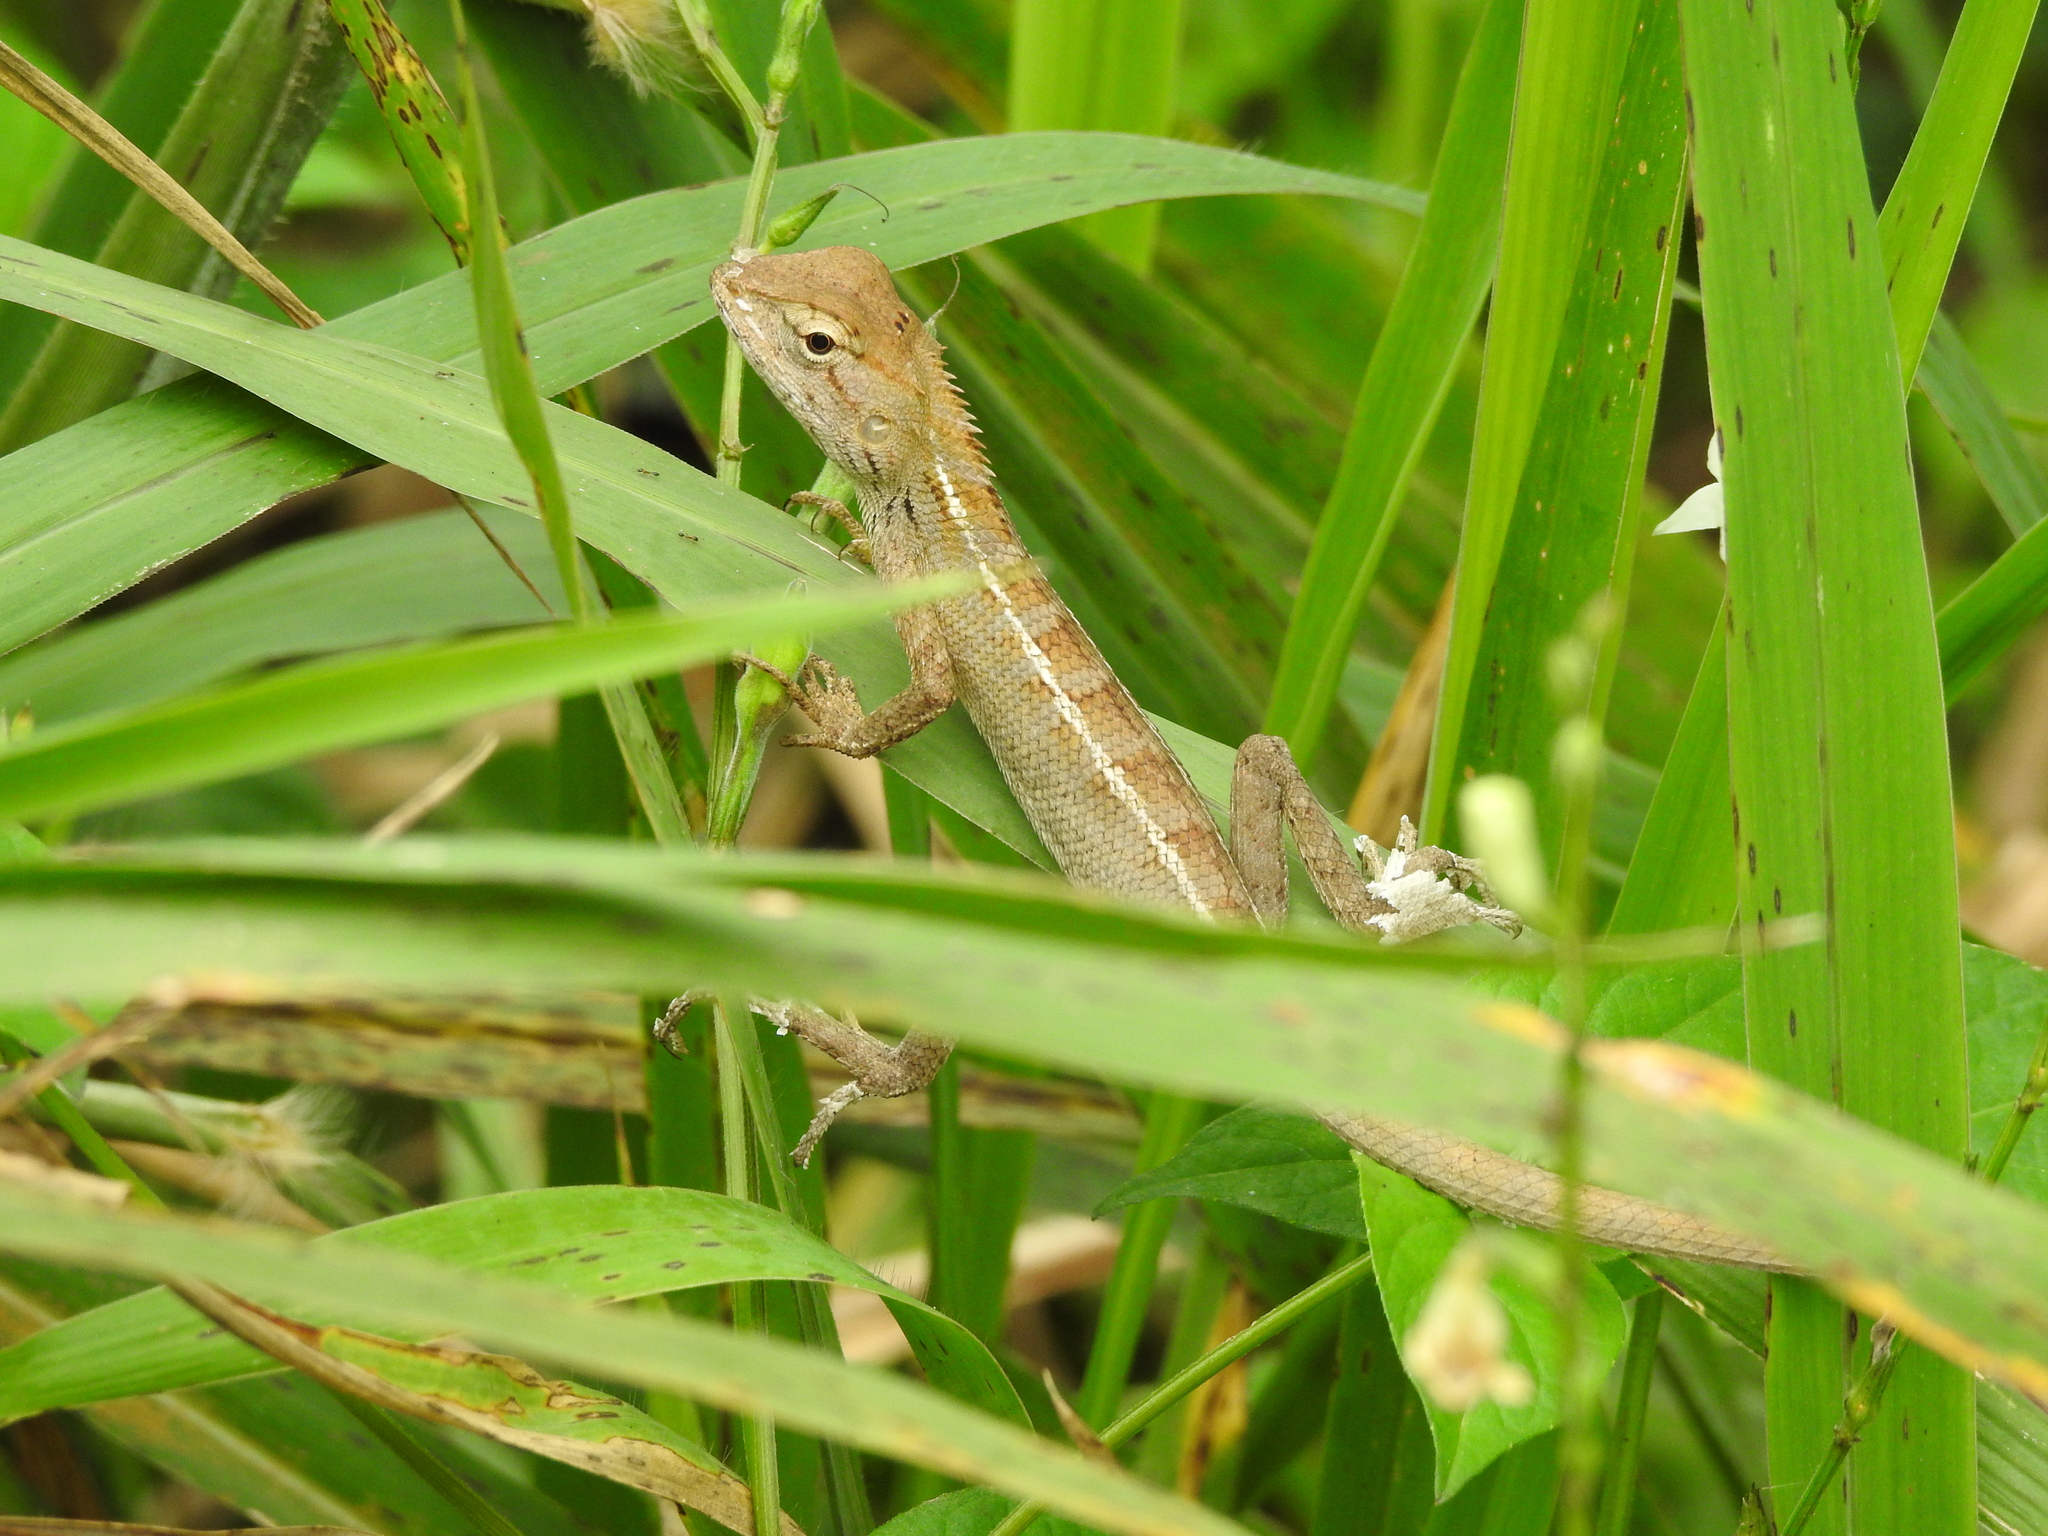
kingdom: Animalia
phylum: Chordata
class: Squamata
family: Agamidae
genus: Calotes
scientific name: Calotes versicolor
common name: Oriental garden lizard
